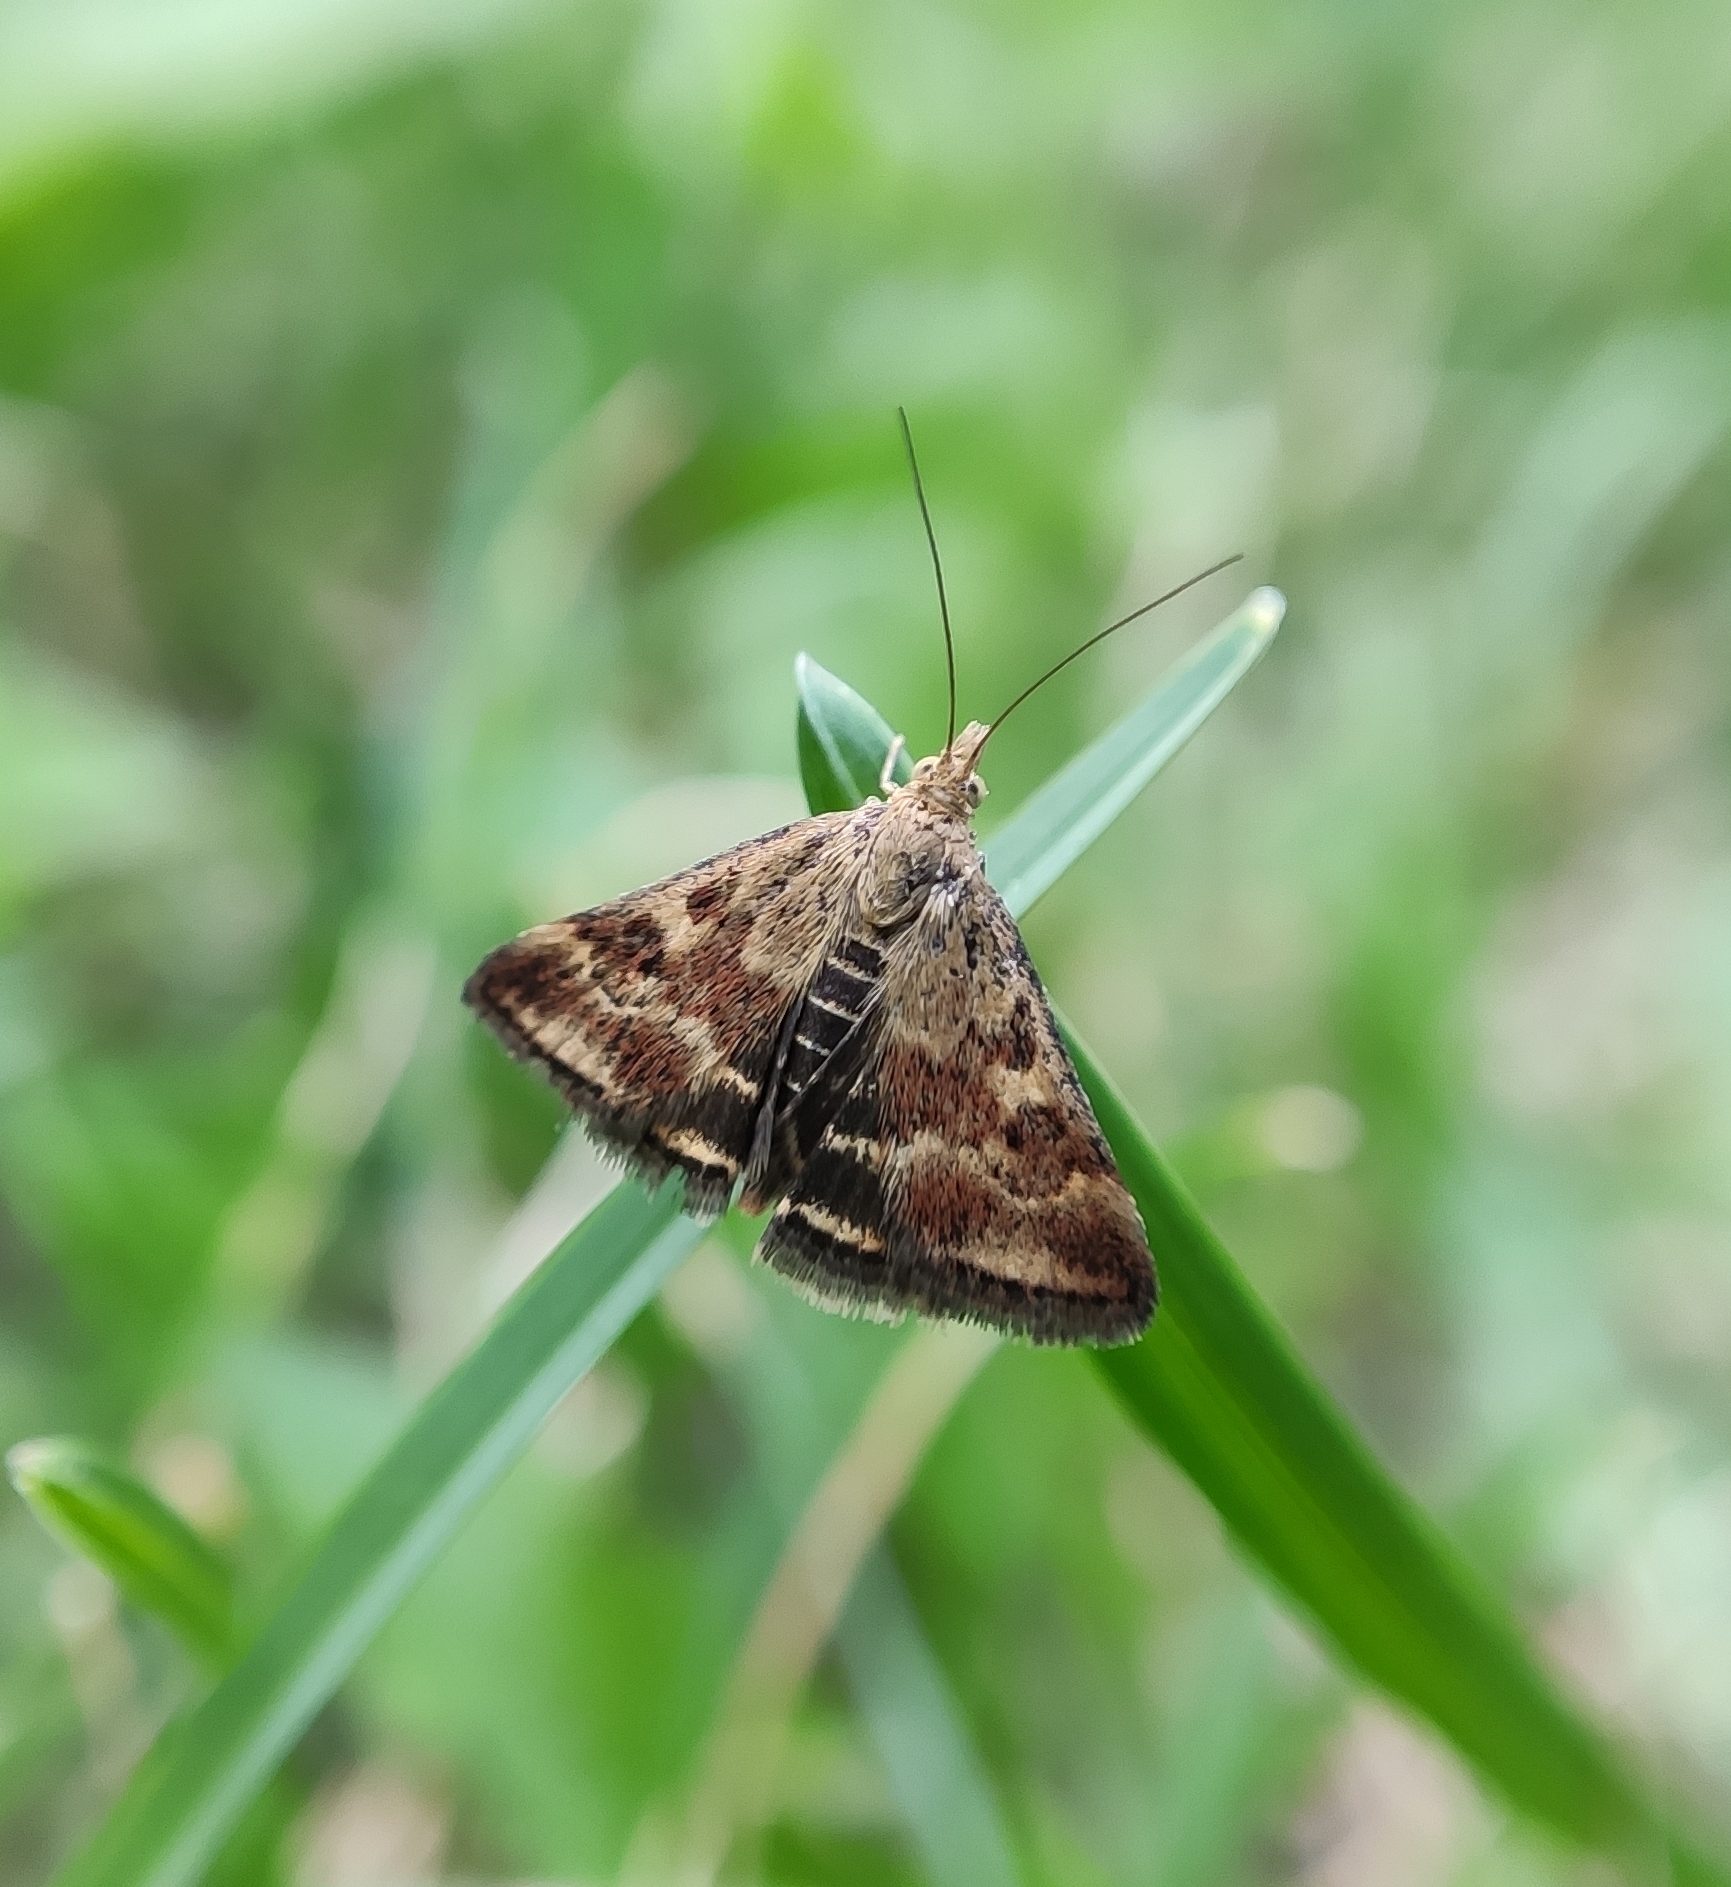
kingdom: Animalia
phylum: Arthropoda
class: Insecta
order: Lepidoptera
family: Crambidae
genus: Pyrausta
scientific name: Pyrausta despicata
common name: Straw-barred pearl
